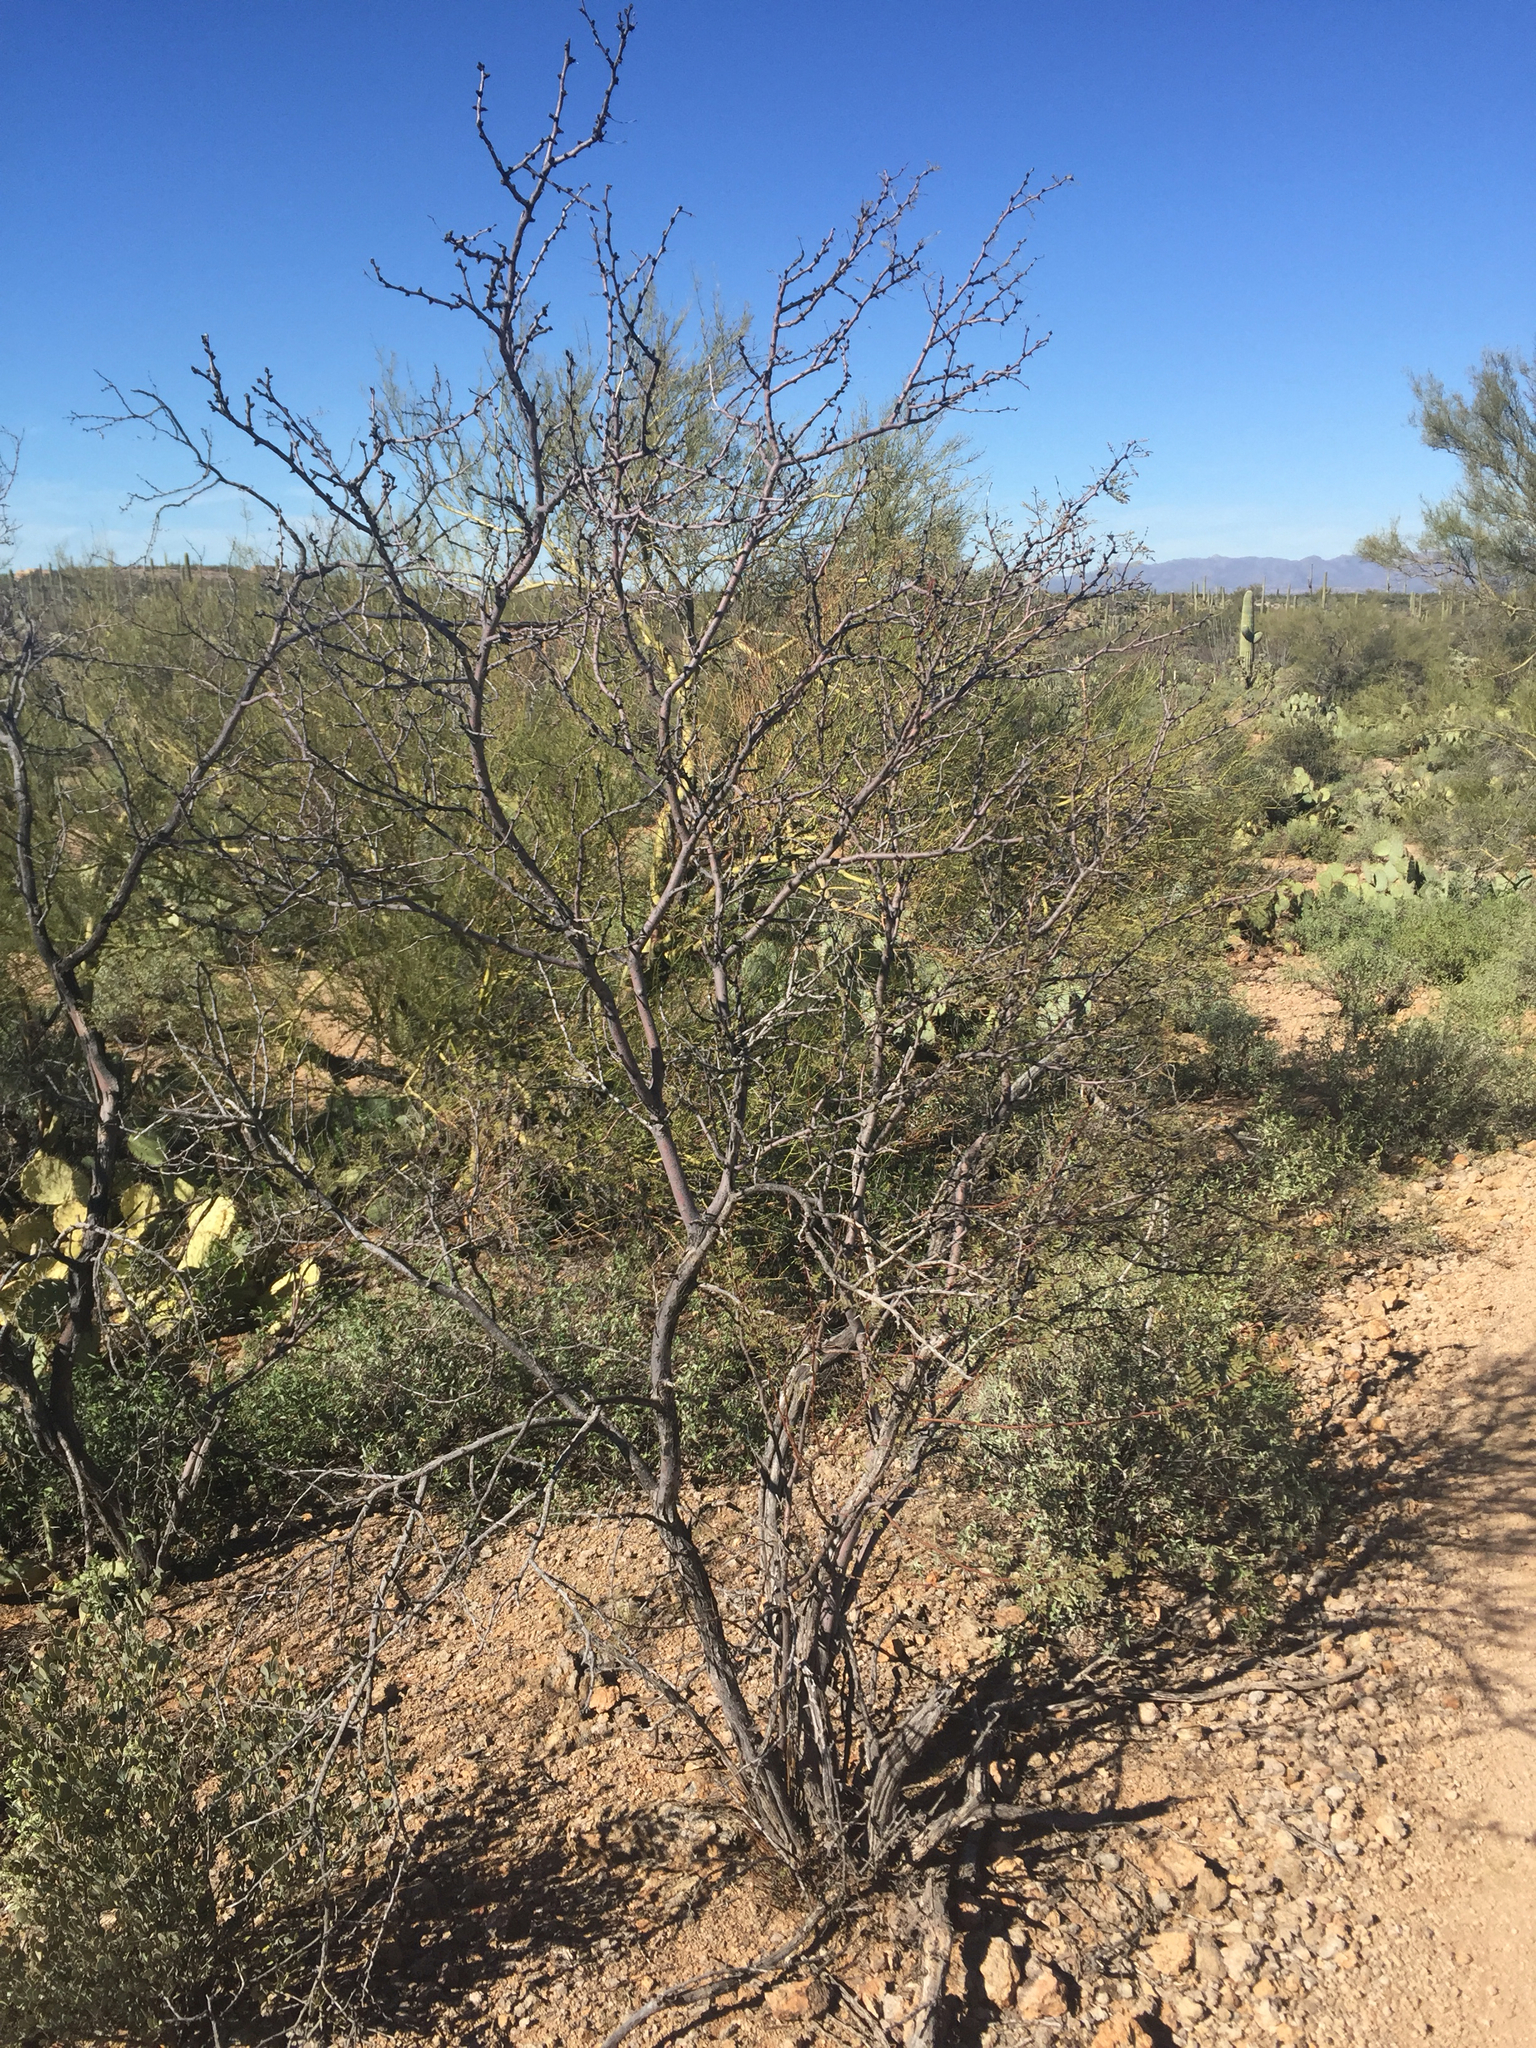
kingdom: Plantae
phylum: Tracheophyta
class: Magnoliopsida
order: Fabales
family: Fabaceae
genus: Vachellia
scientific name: Vachellia constricta
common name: Mescat acacia
